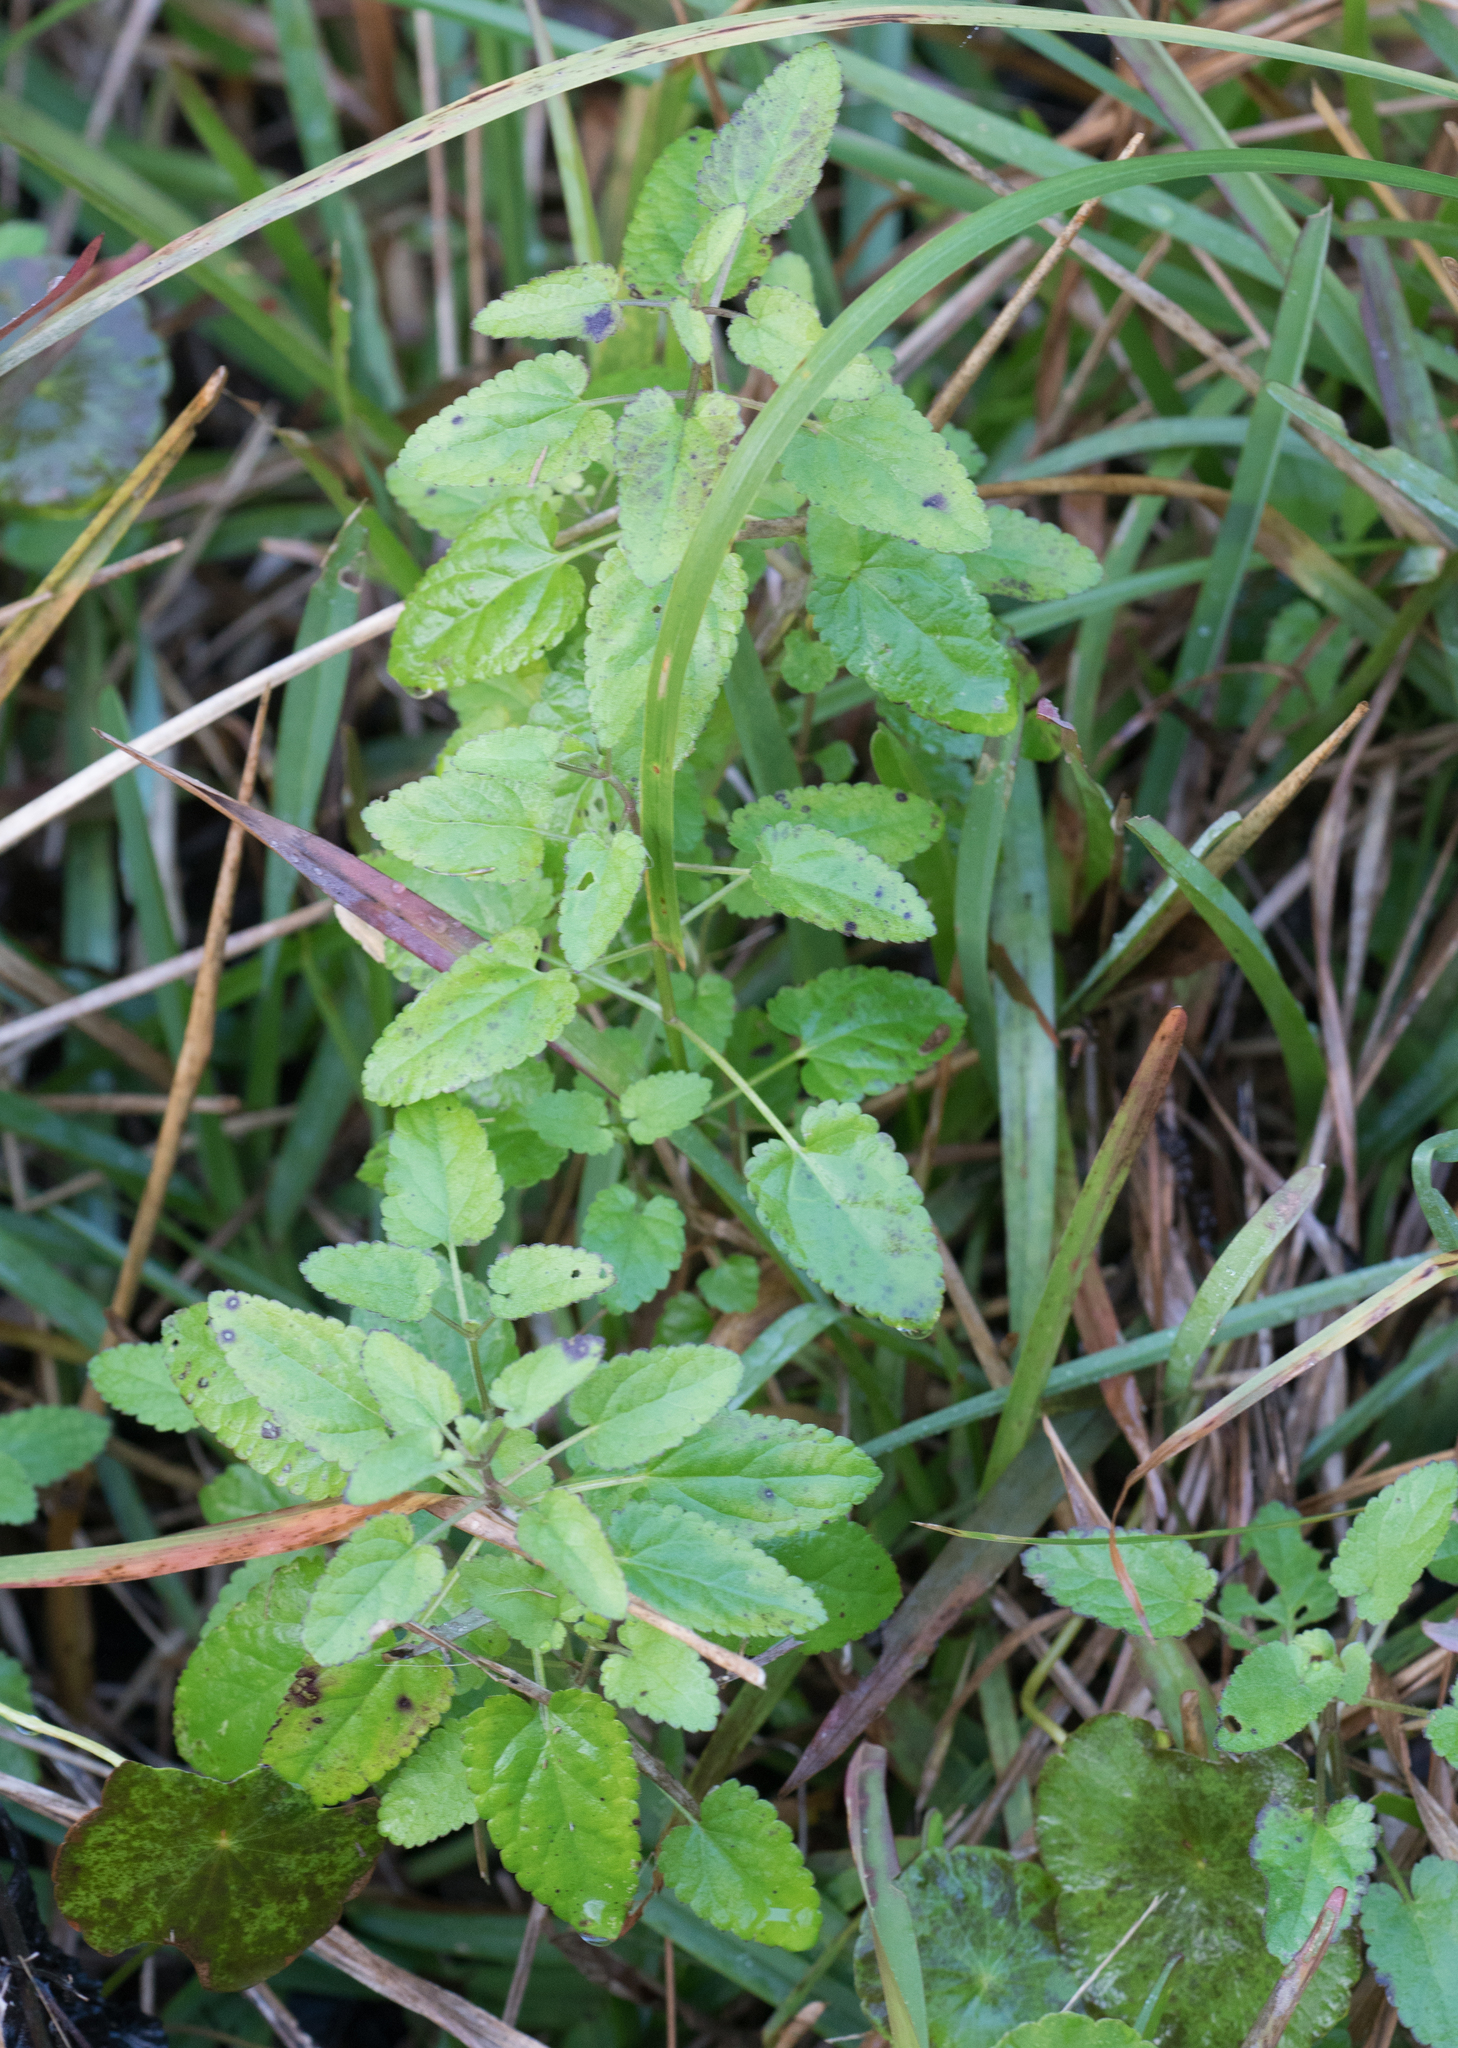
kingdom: Plantae
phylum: Tracheophyta
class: Magnoliopsida
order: Lamiales
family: Lamiaceae
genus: Stachys
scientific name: Stachys floridana
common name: Florida betony
